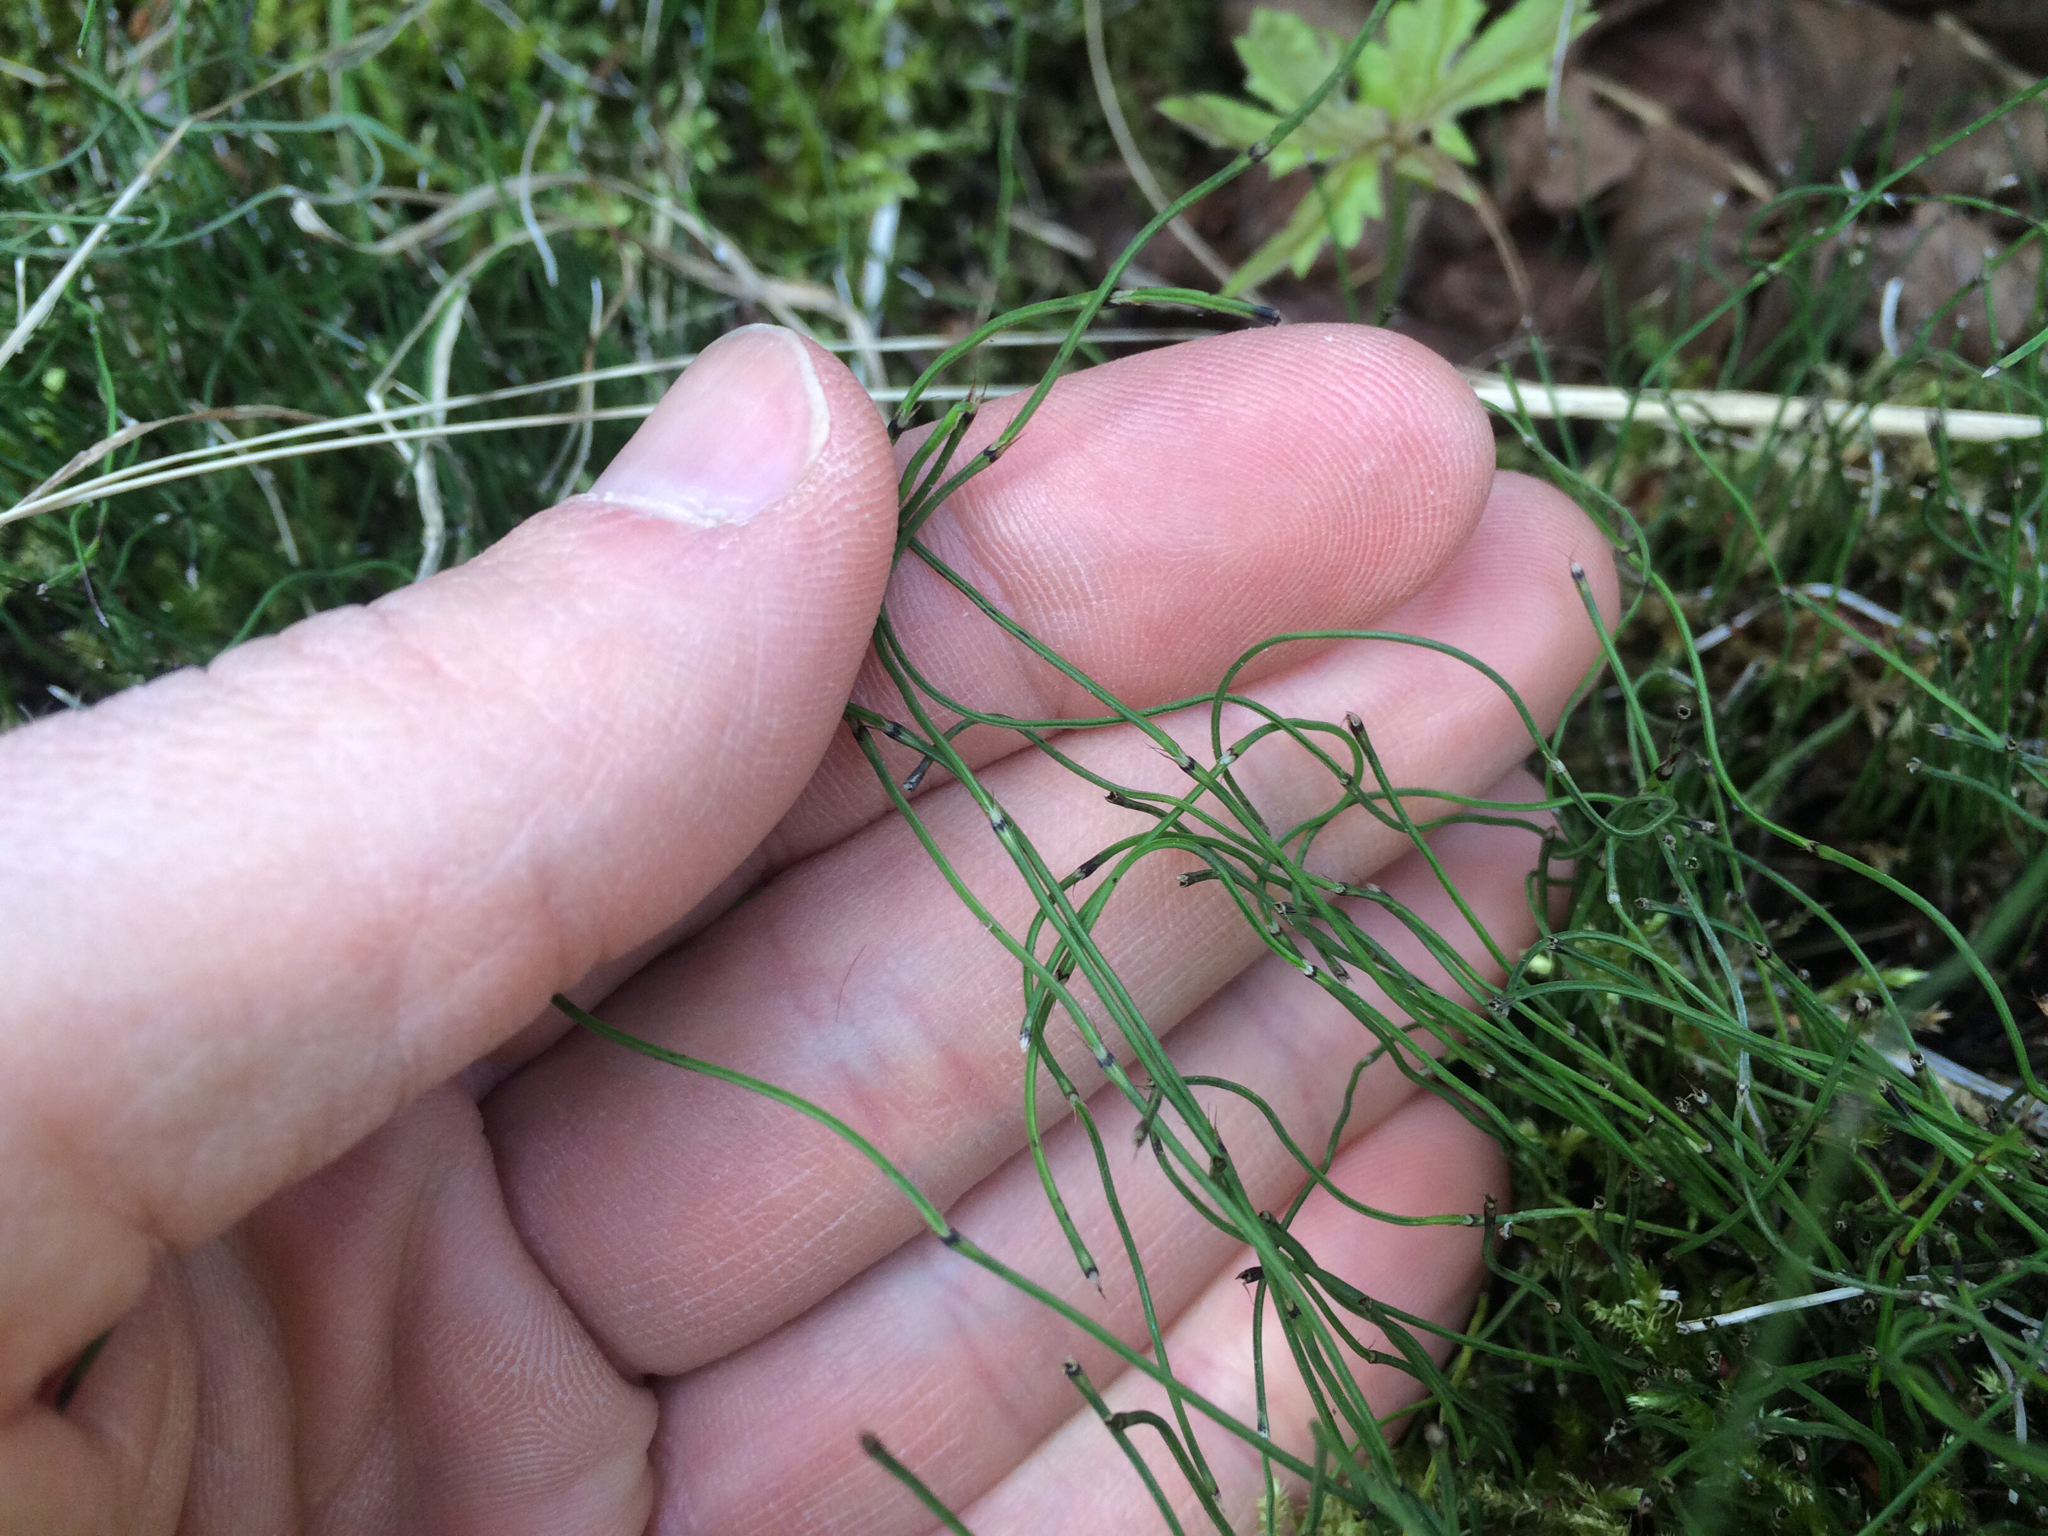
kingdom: Plantae
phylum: Tracheophyta
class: Polypodiopsida
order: Equisetales
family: Equisetaceae
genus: Equisetum
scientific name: Equisetum scirpoides
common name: Delicate horsetail
